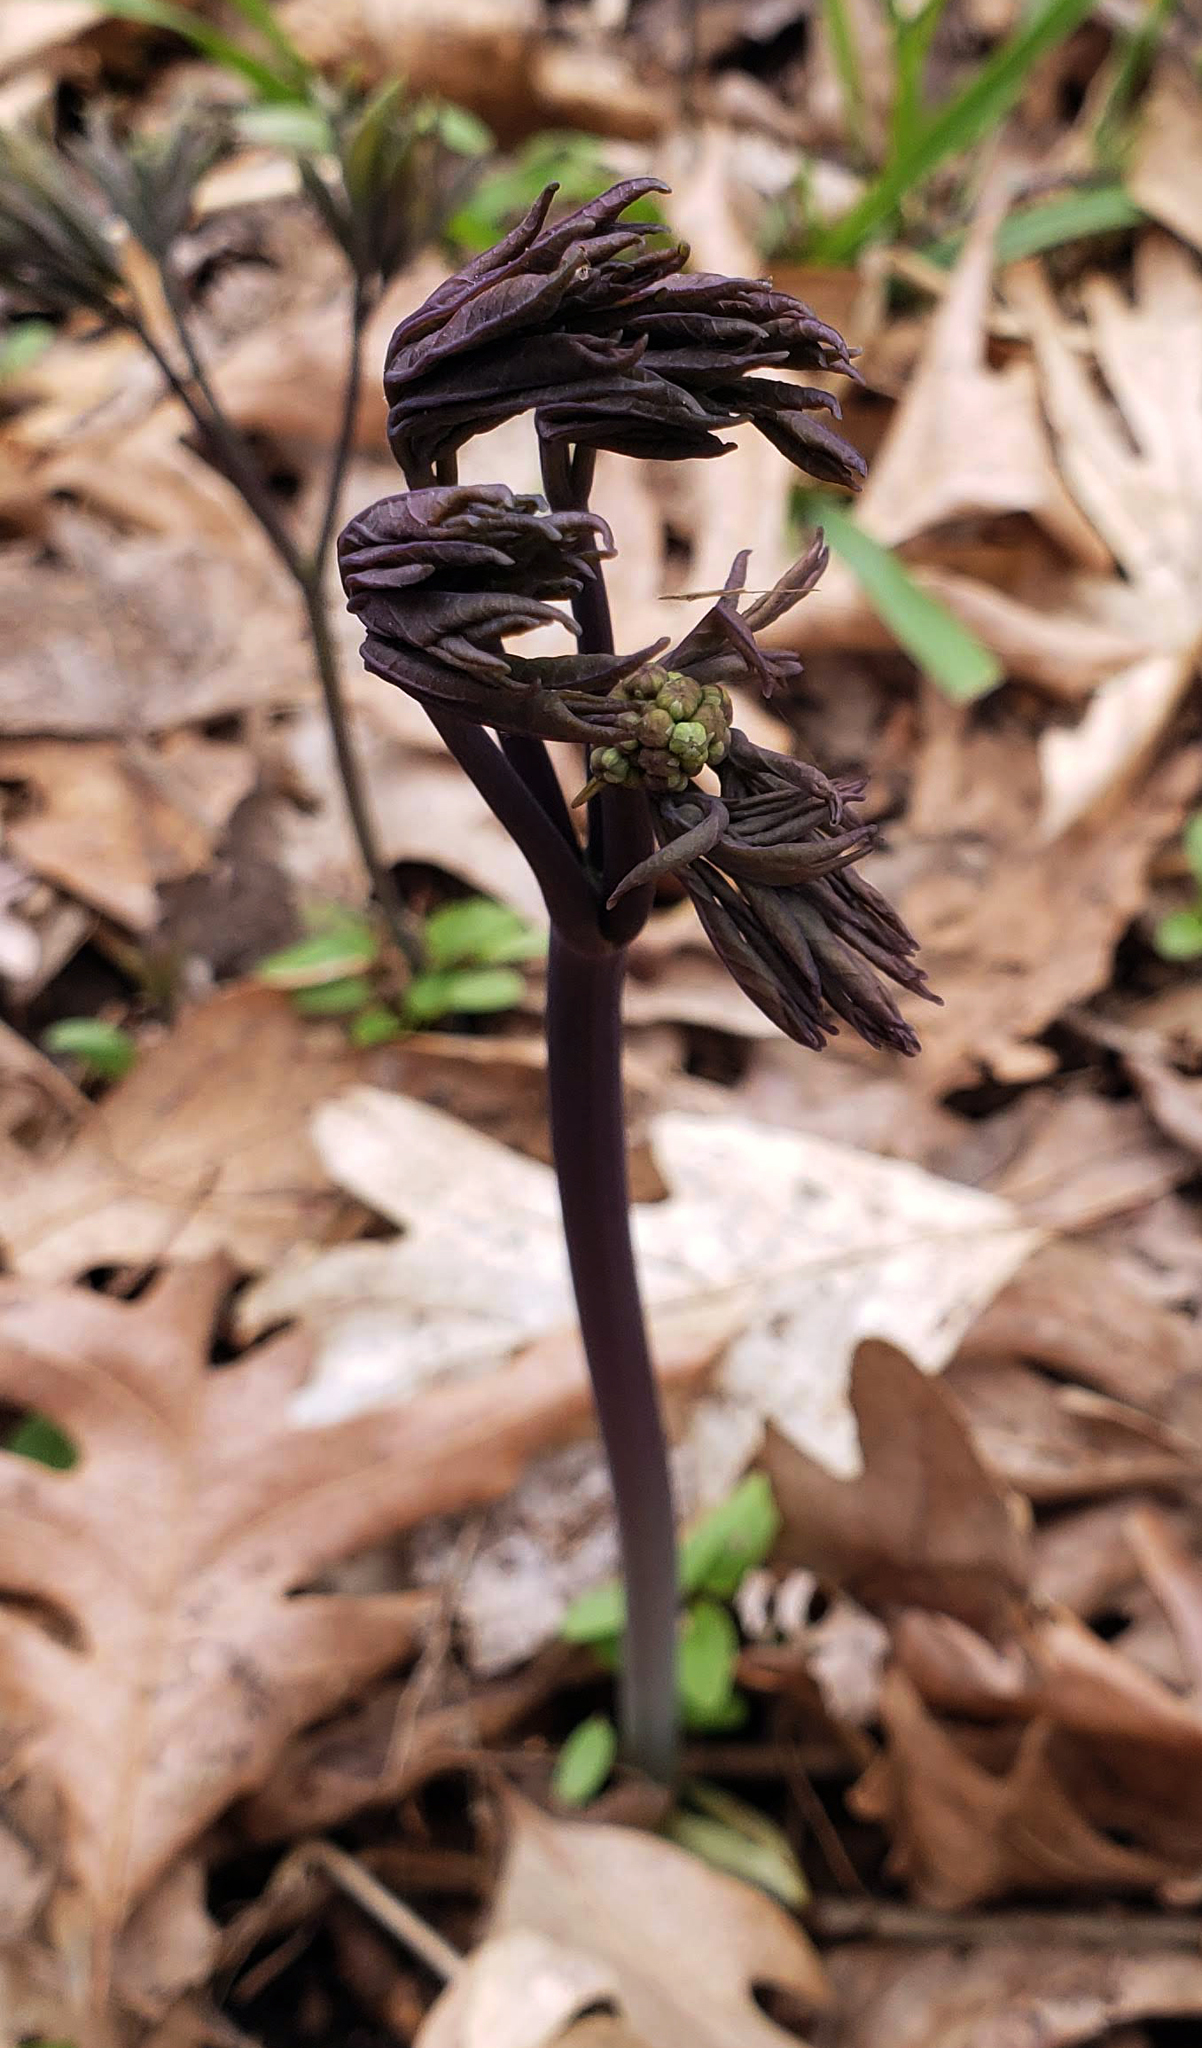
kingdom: Plantae
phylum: Tracheophyta
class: Magnoliopsida
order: Ranunculales
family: Berberidaceae
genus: Caulophyllum
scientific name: Caulophyllum thalictroides
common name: Blue cohosh
